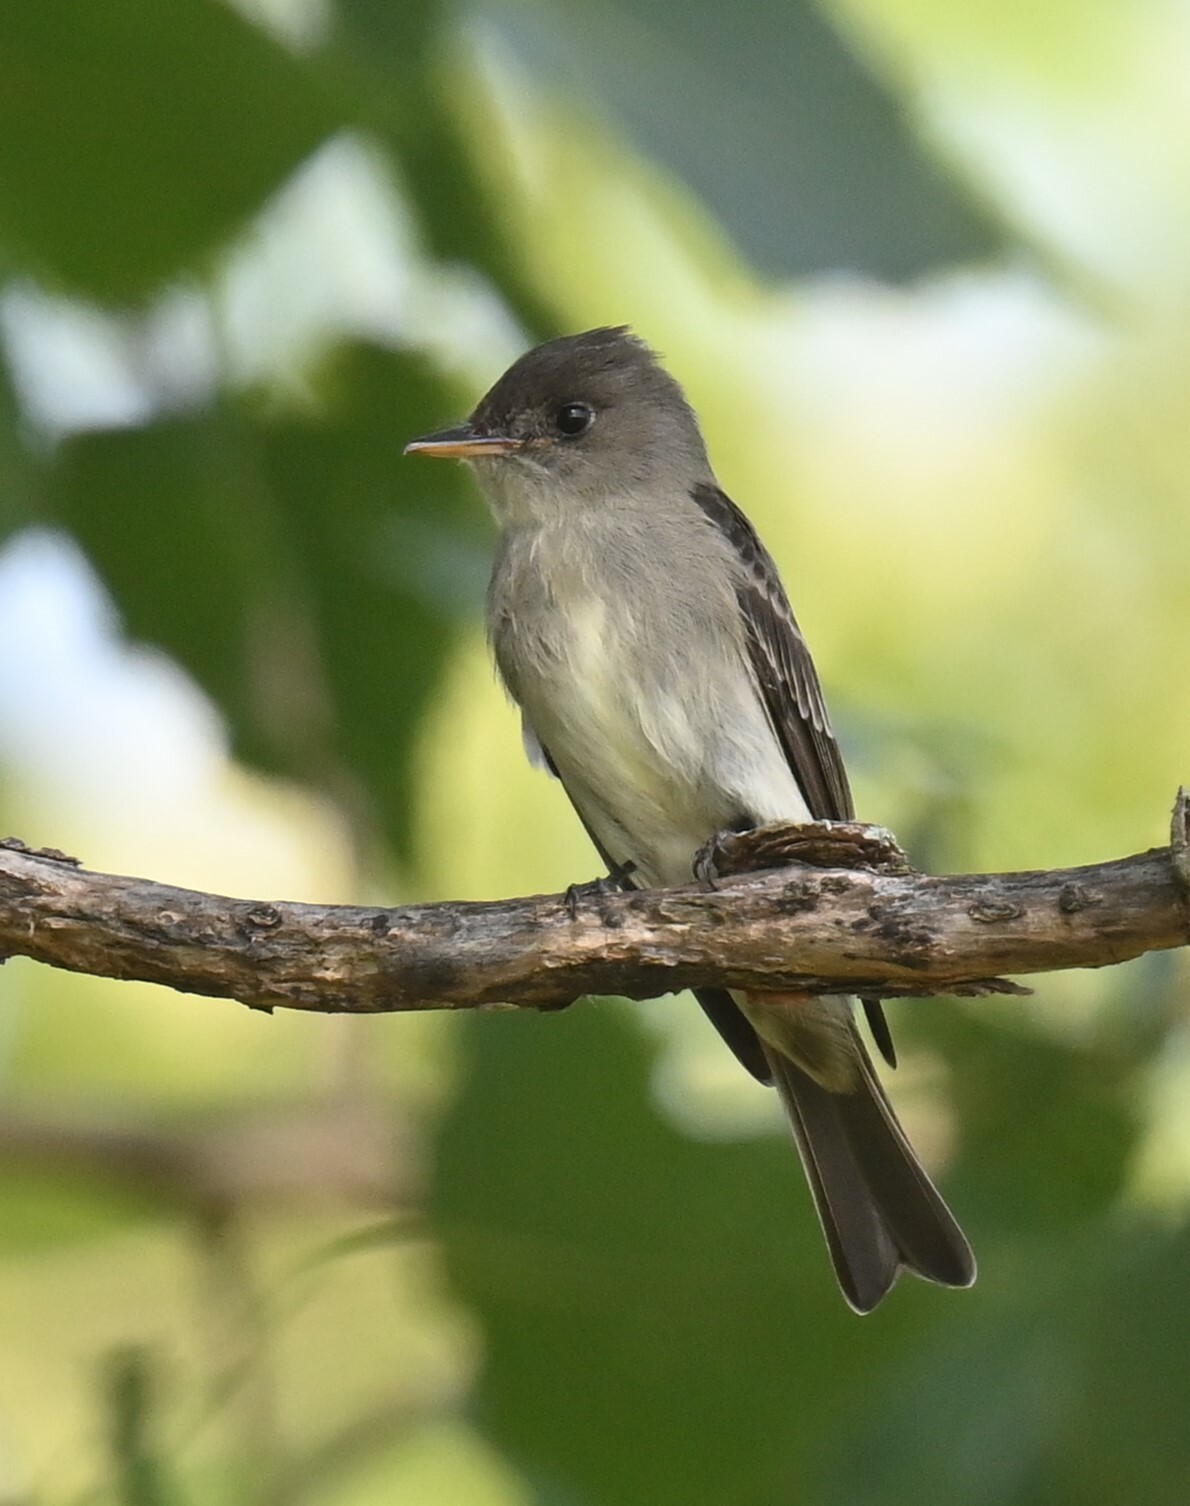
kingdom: Animalia
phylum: Chordata
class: Aves
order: Passeriformes
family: Tyrannidae
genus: Contopus
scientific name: Contopus virens
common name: Eastern wood-pewee
